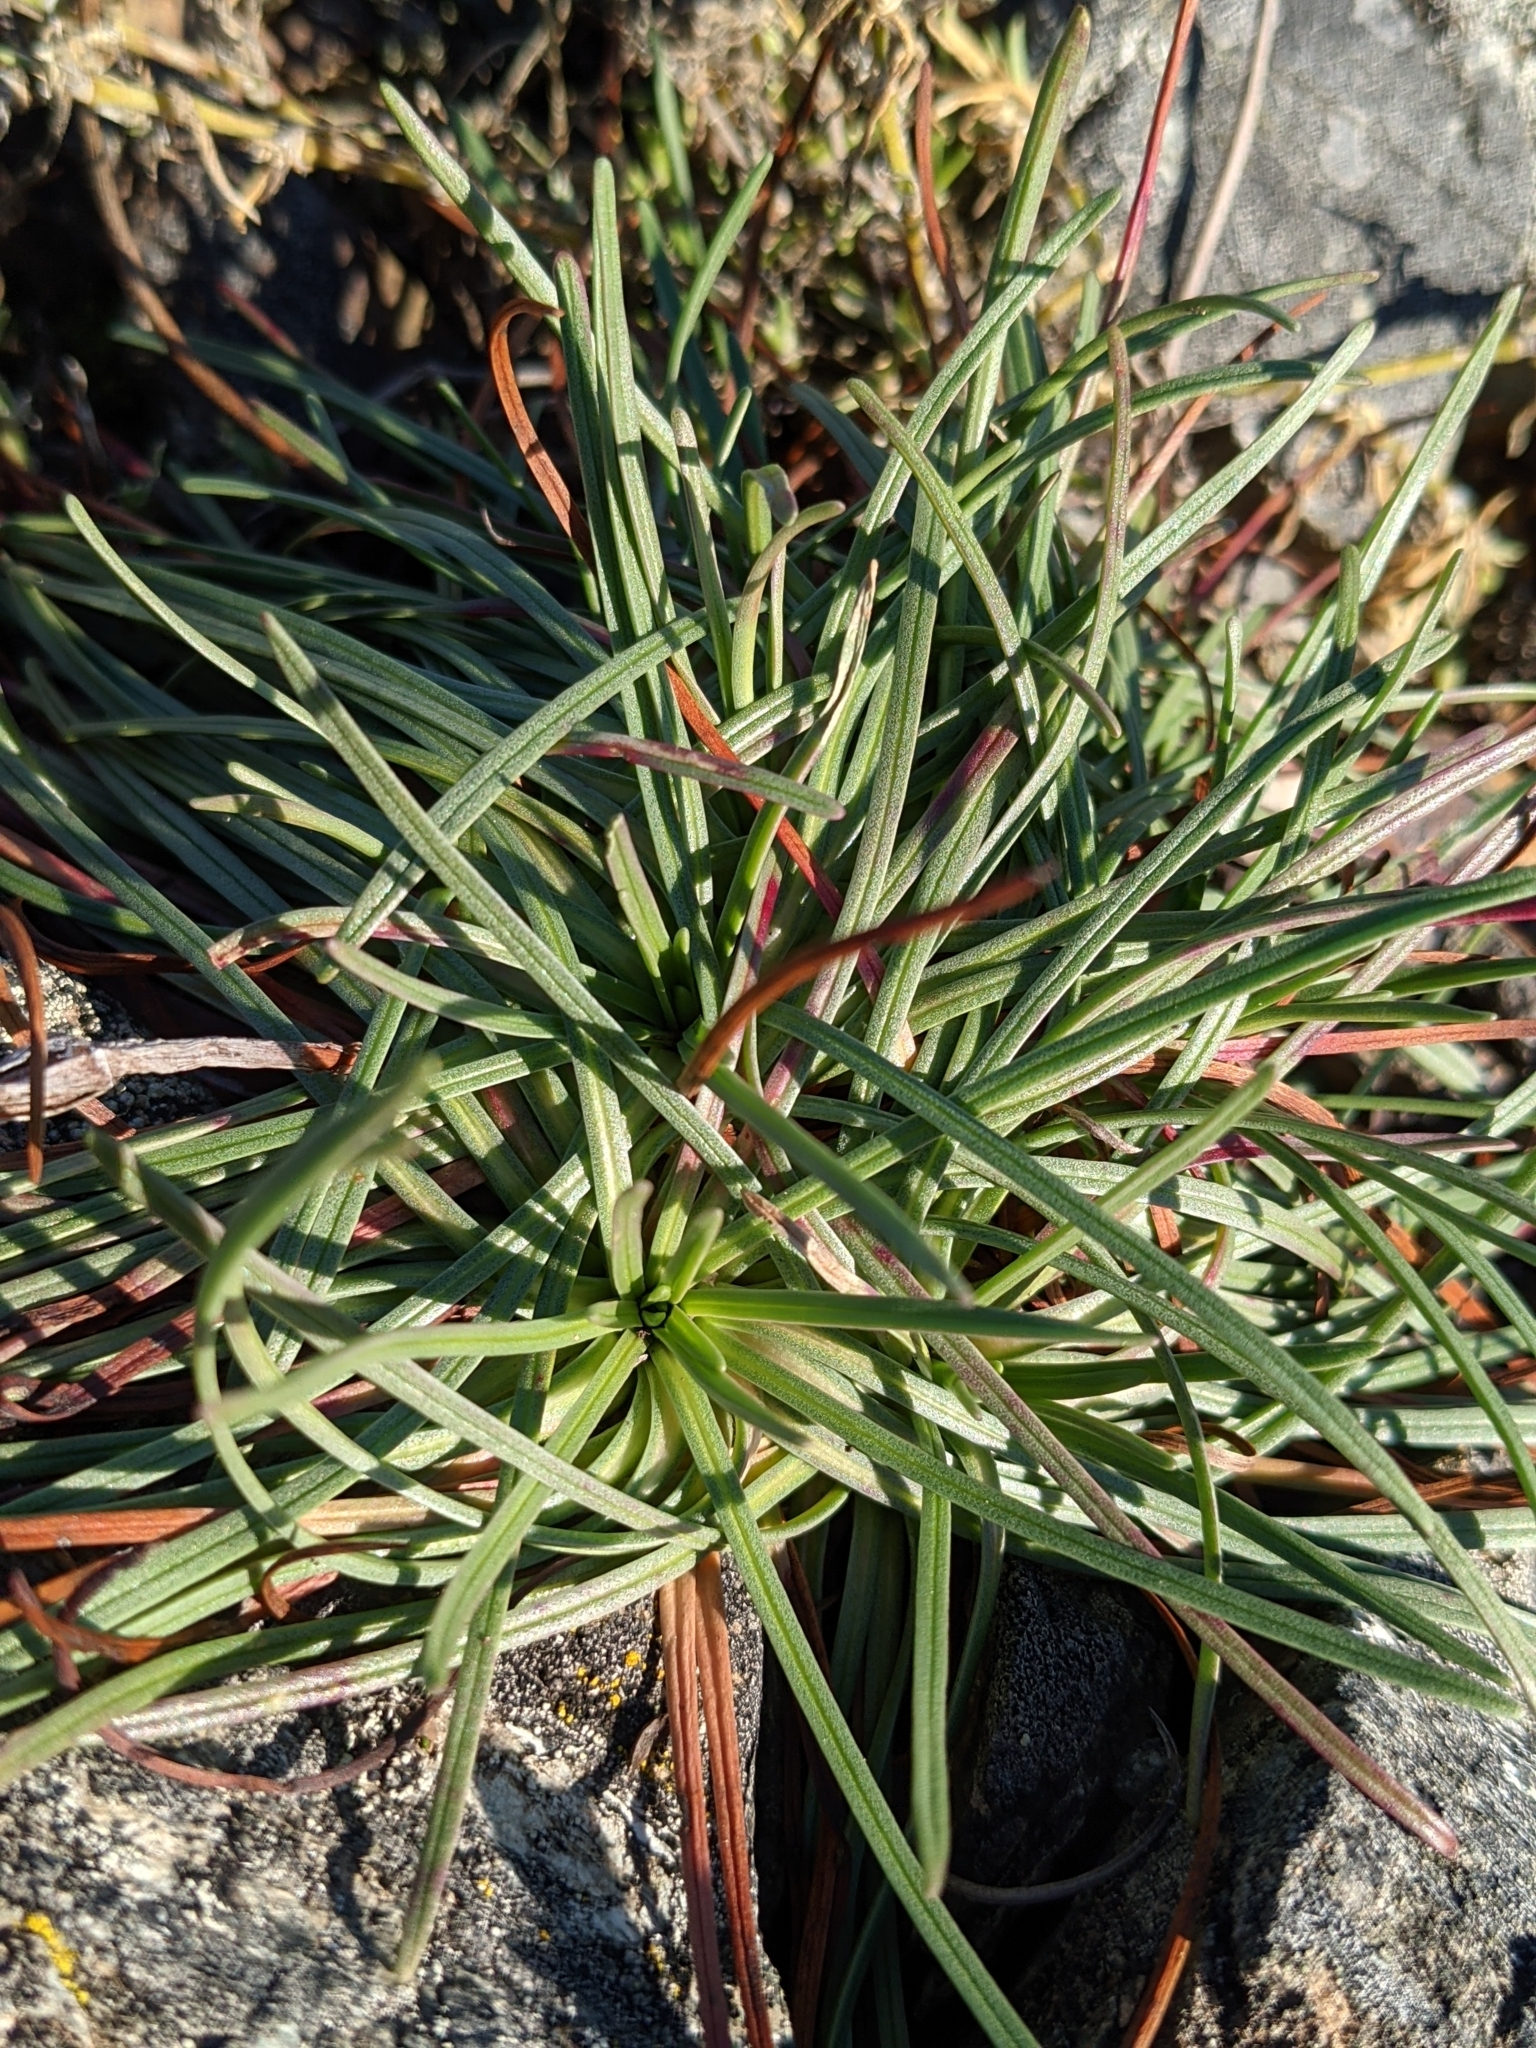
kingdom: Plantae
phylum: Tracheophyta
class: Magnoliopsida
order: Caryophyllales
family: Plumbaginaceae
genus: Armeria
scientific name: Armeria maritima
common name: Thrift
